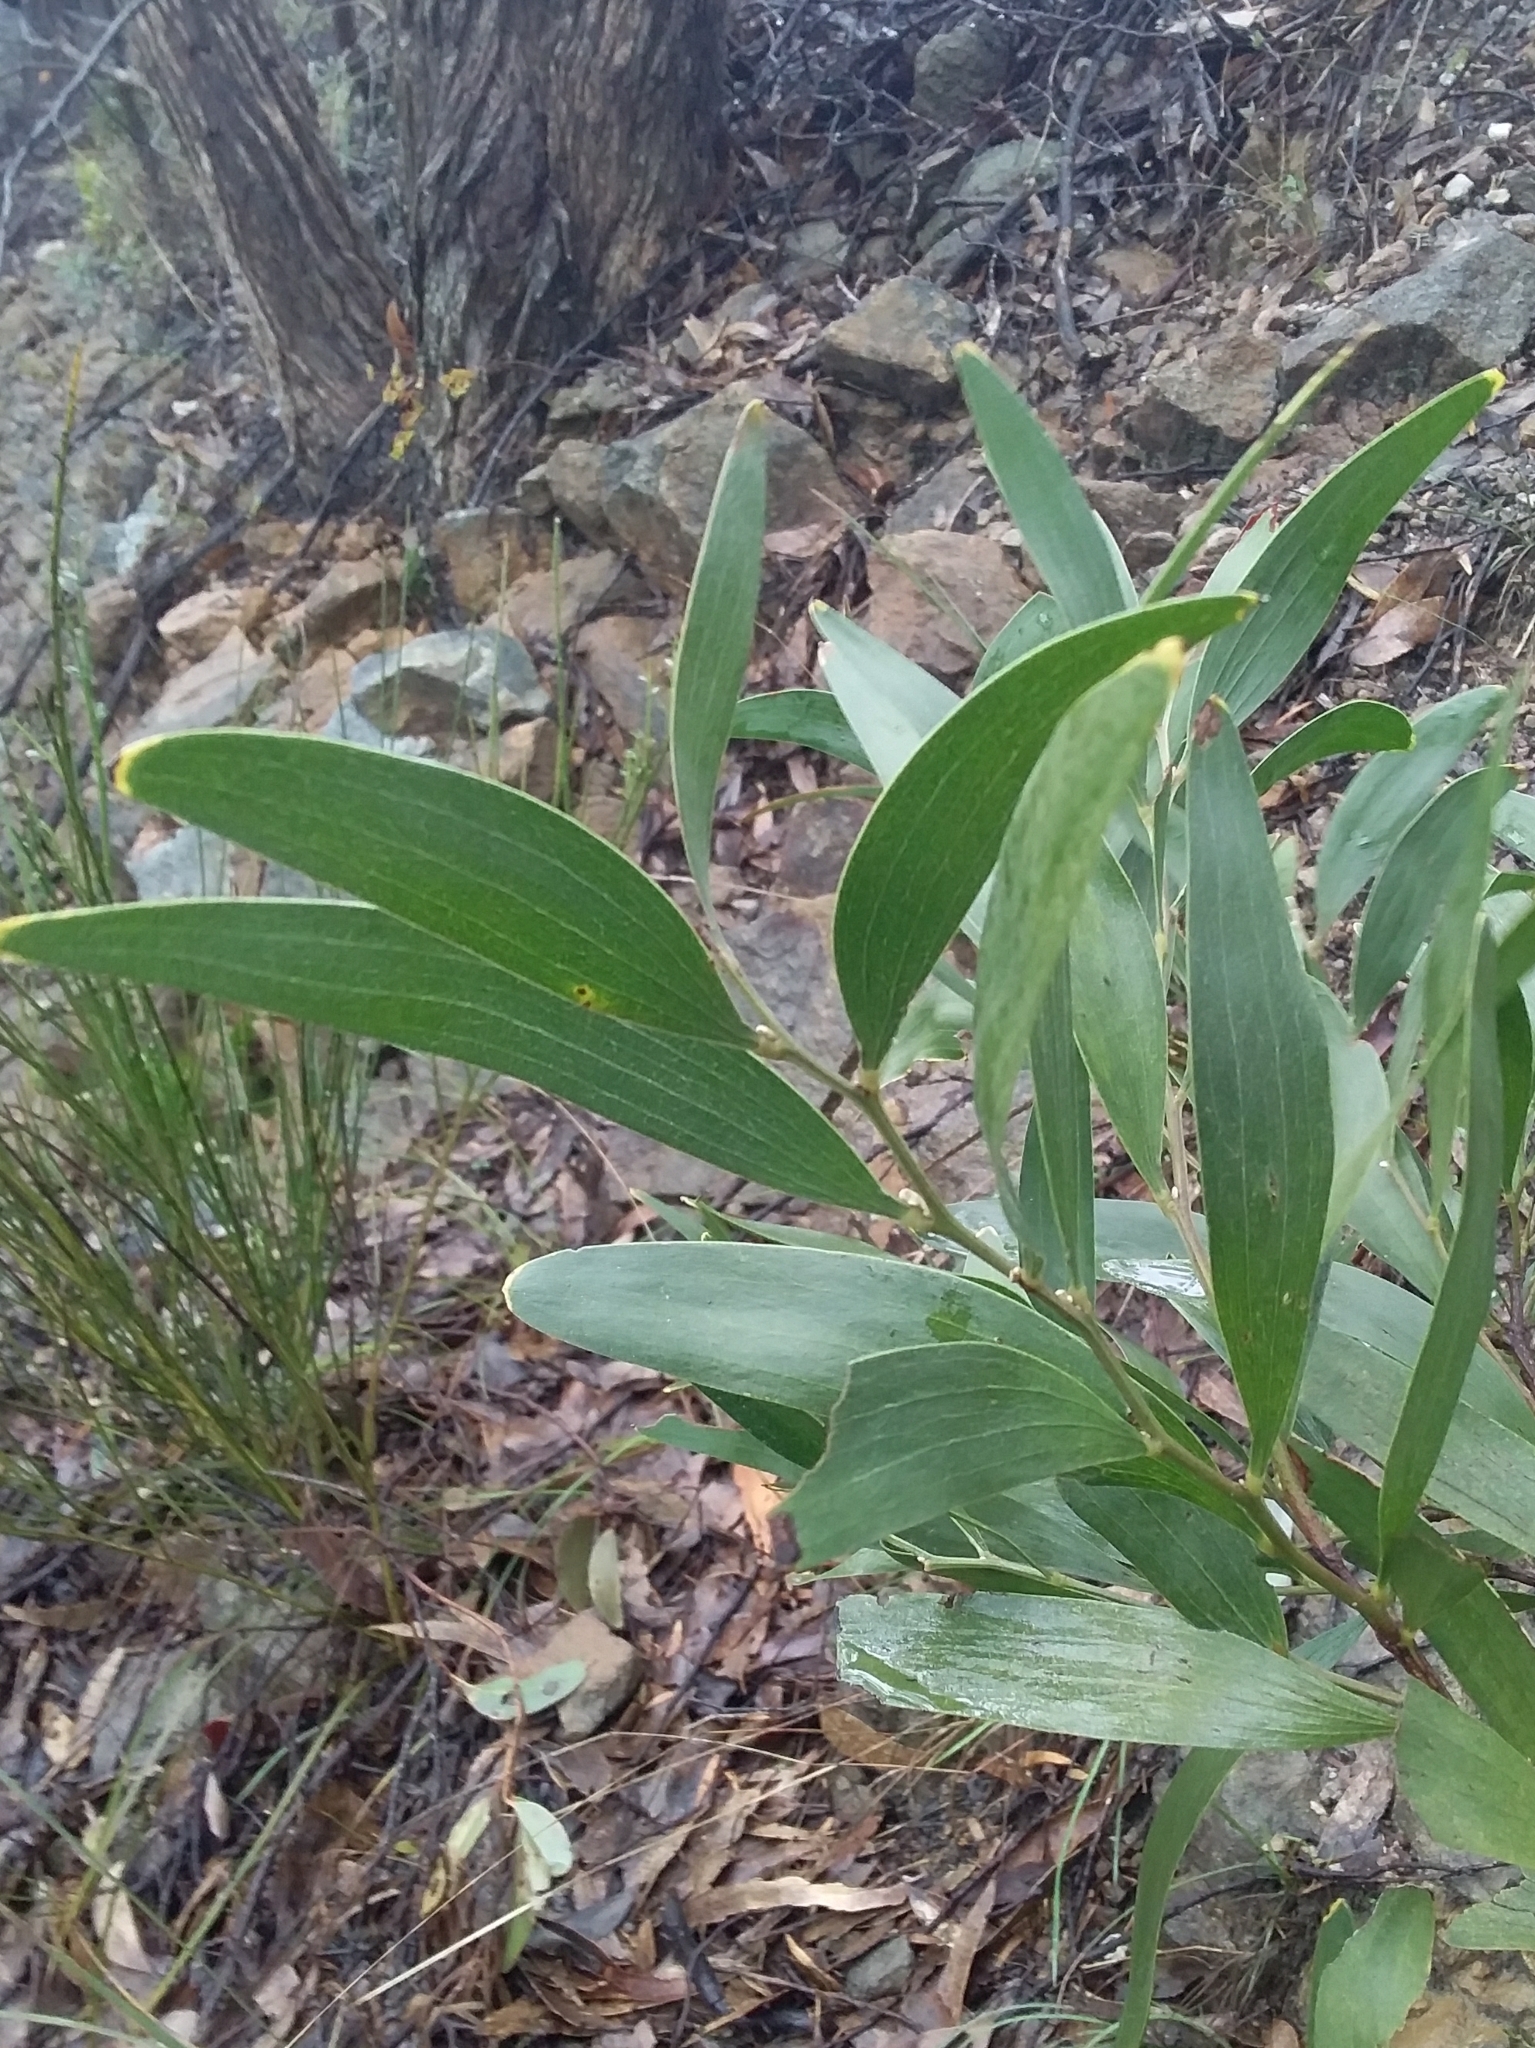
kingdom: Plantae
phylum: Tracheophyta
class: Magnoliopsida
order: Fabales
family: Fabaceae
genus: Acacia
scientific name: Acacia melanoxylon
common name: Blackwood
